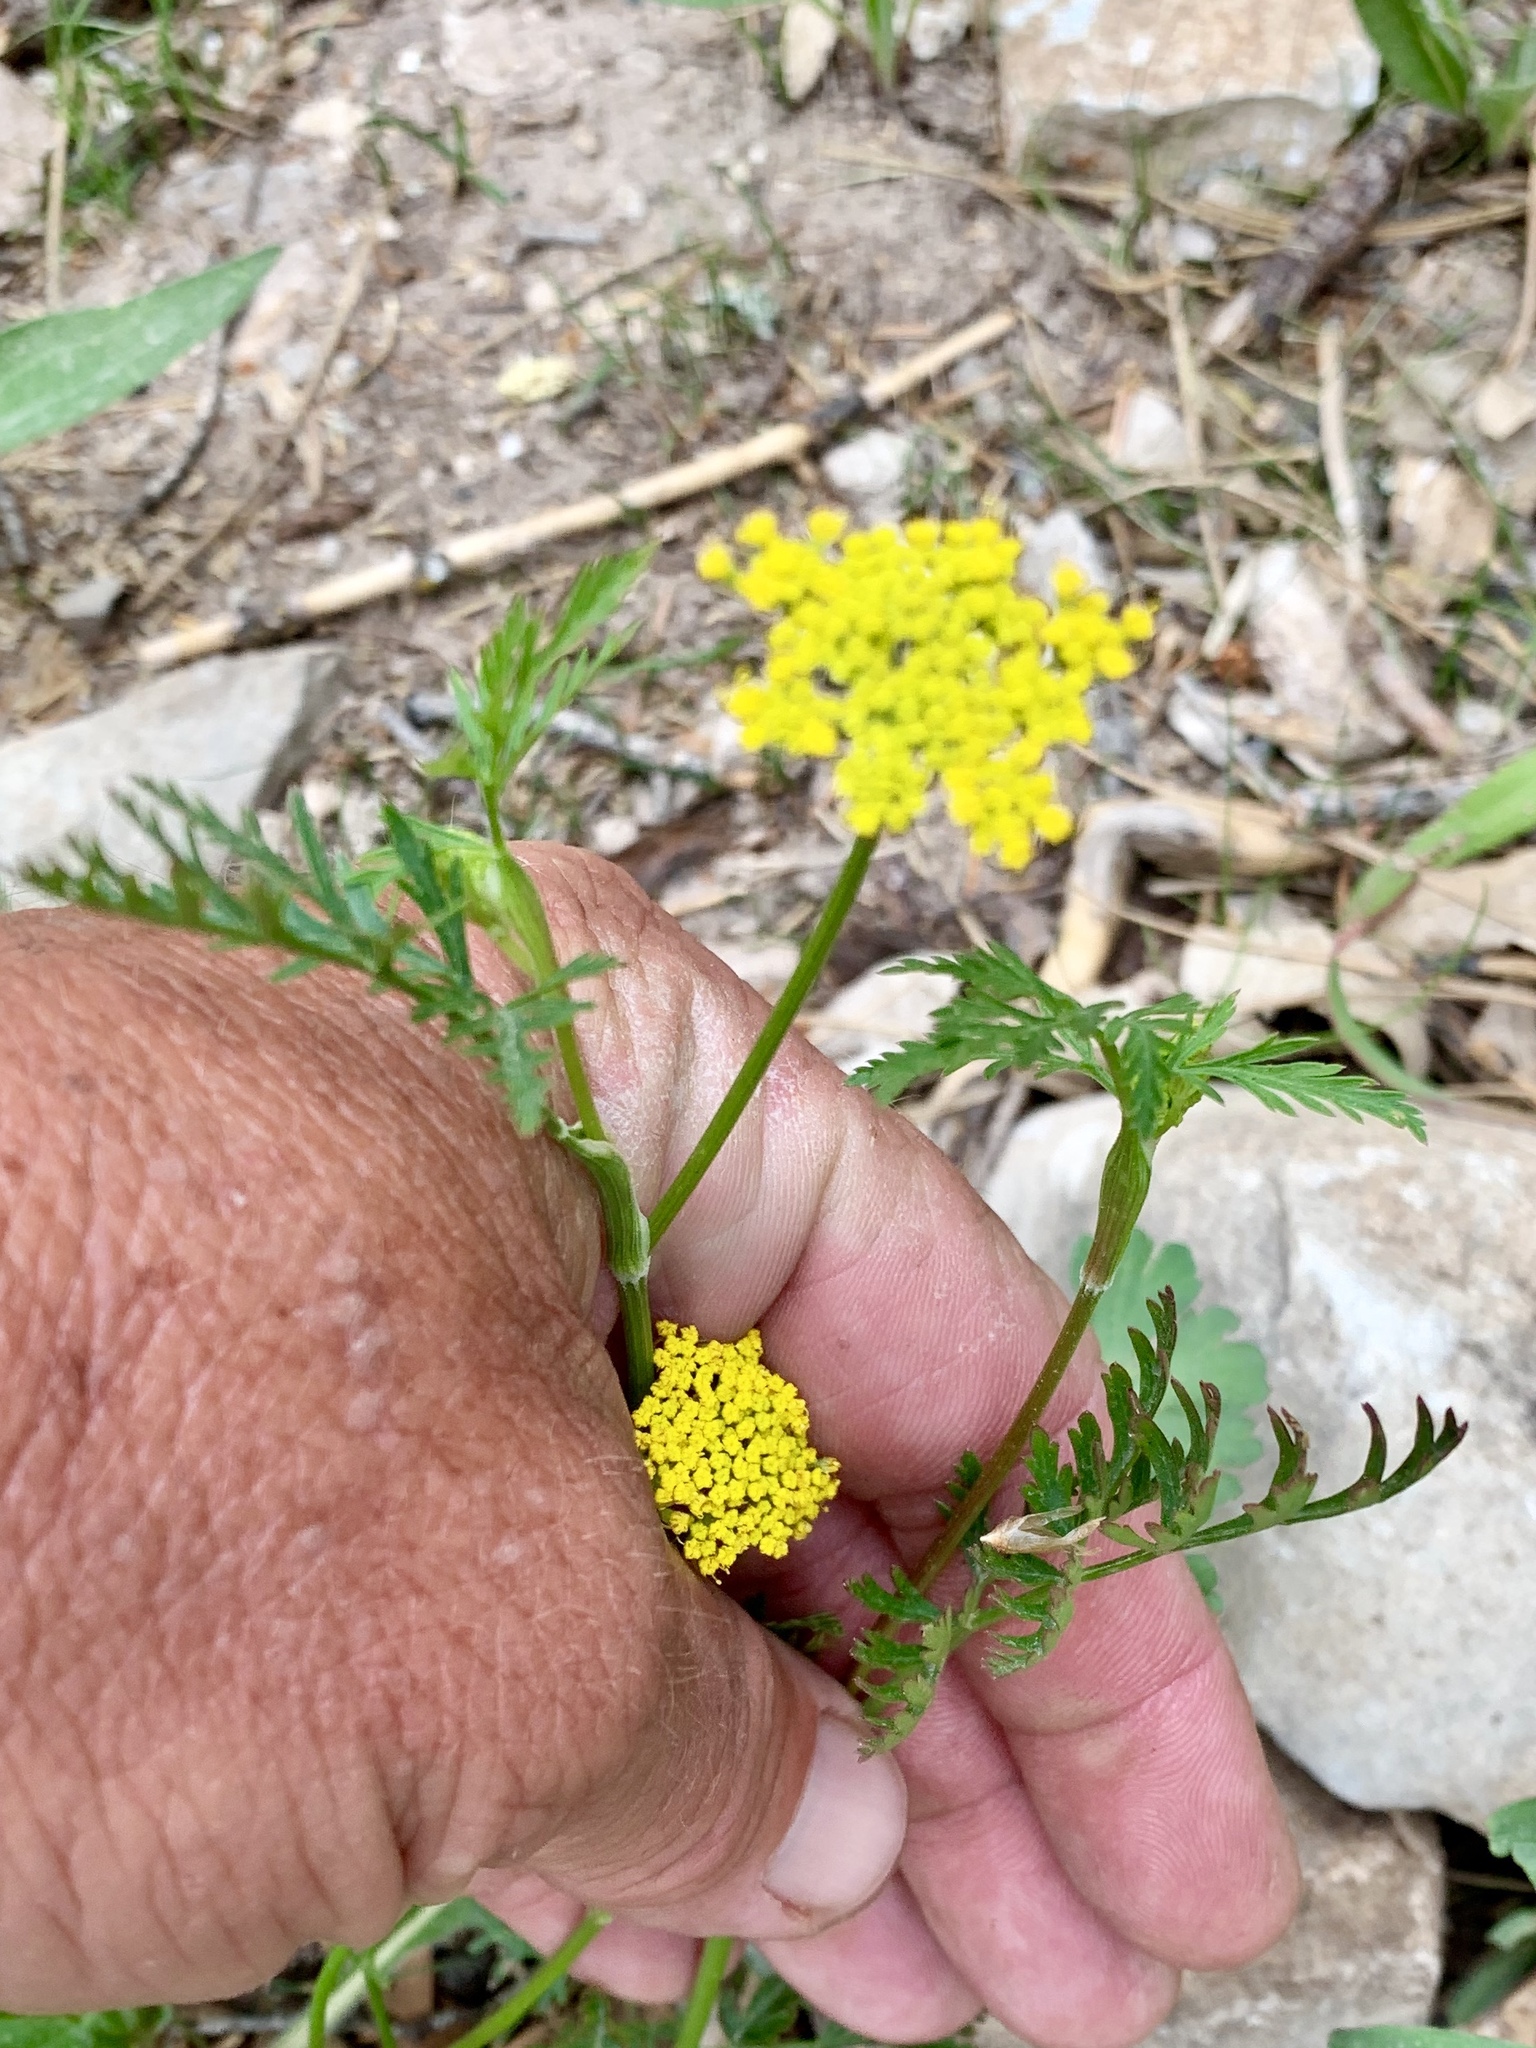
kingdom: Plantae
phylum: Tracheophyta
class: Magnoliopsida
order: Apiales
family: Apiaceae
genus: Cymopterus
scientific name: Cymopterus lemmonii
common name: Lemmon's spring-parsley
